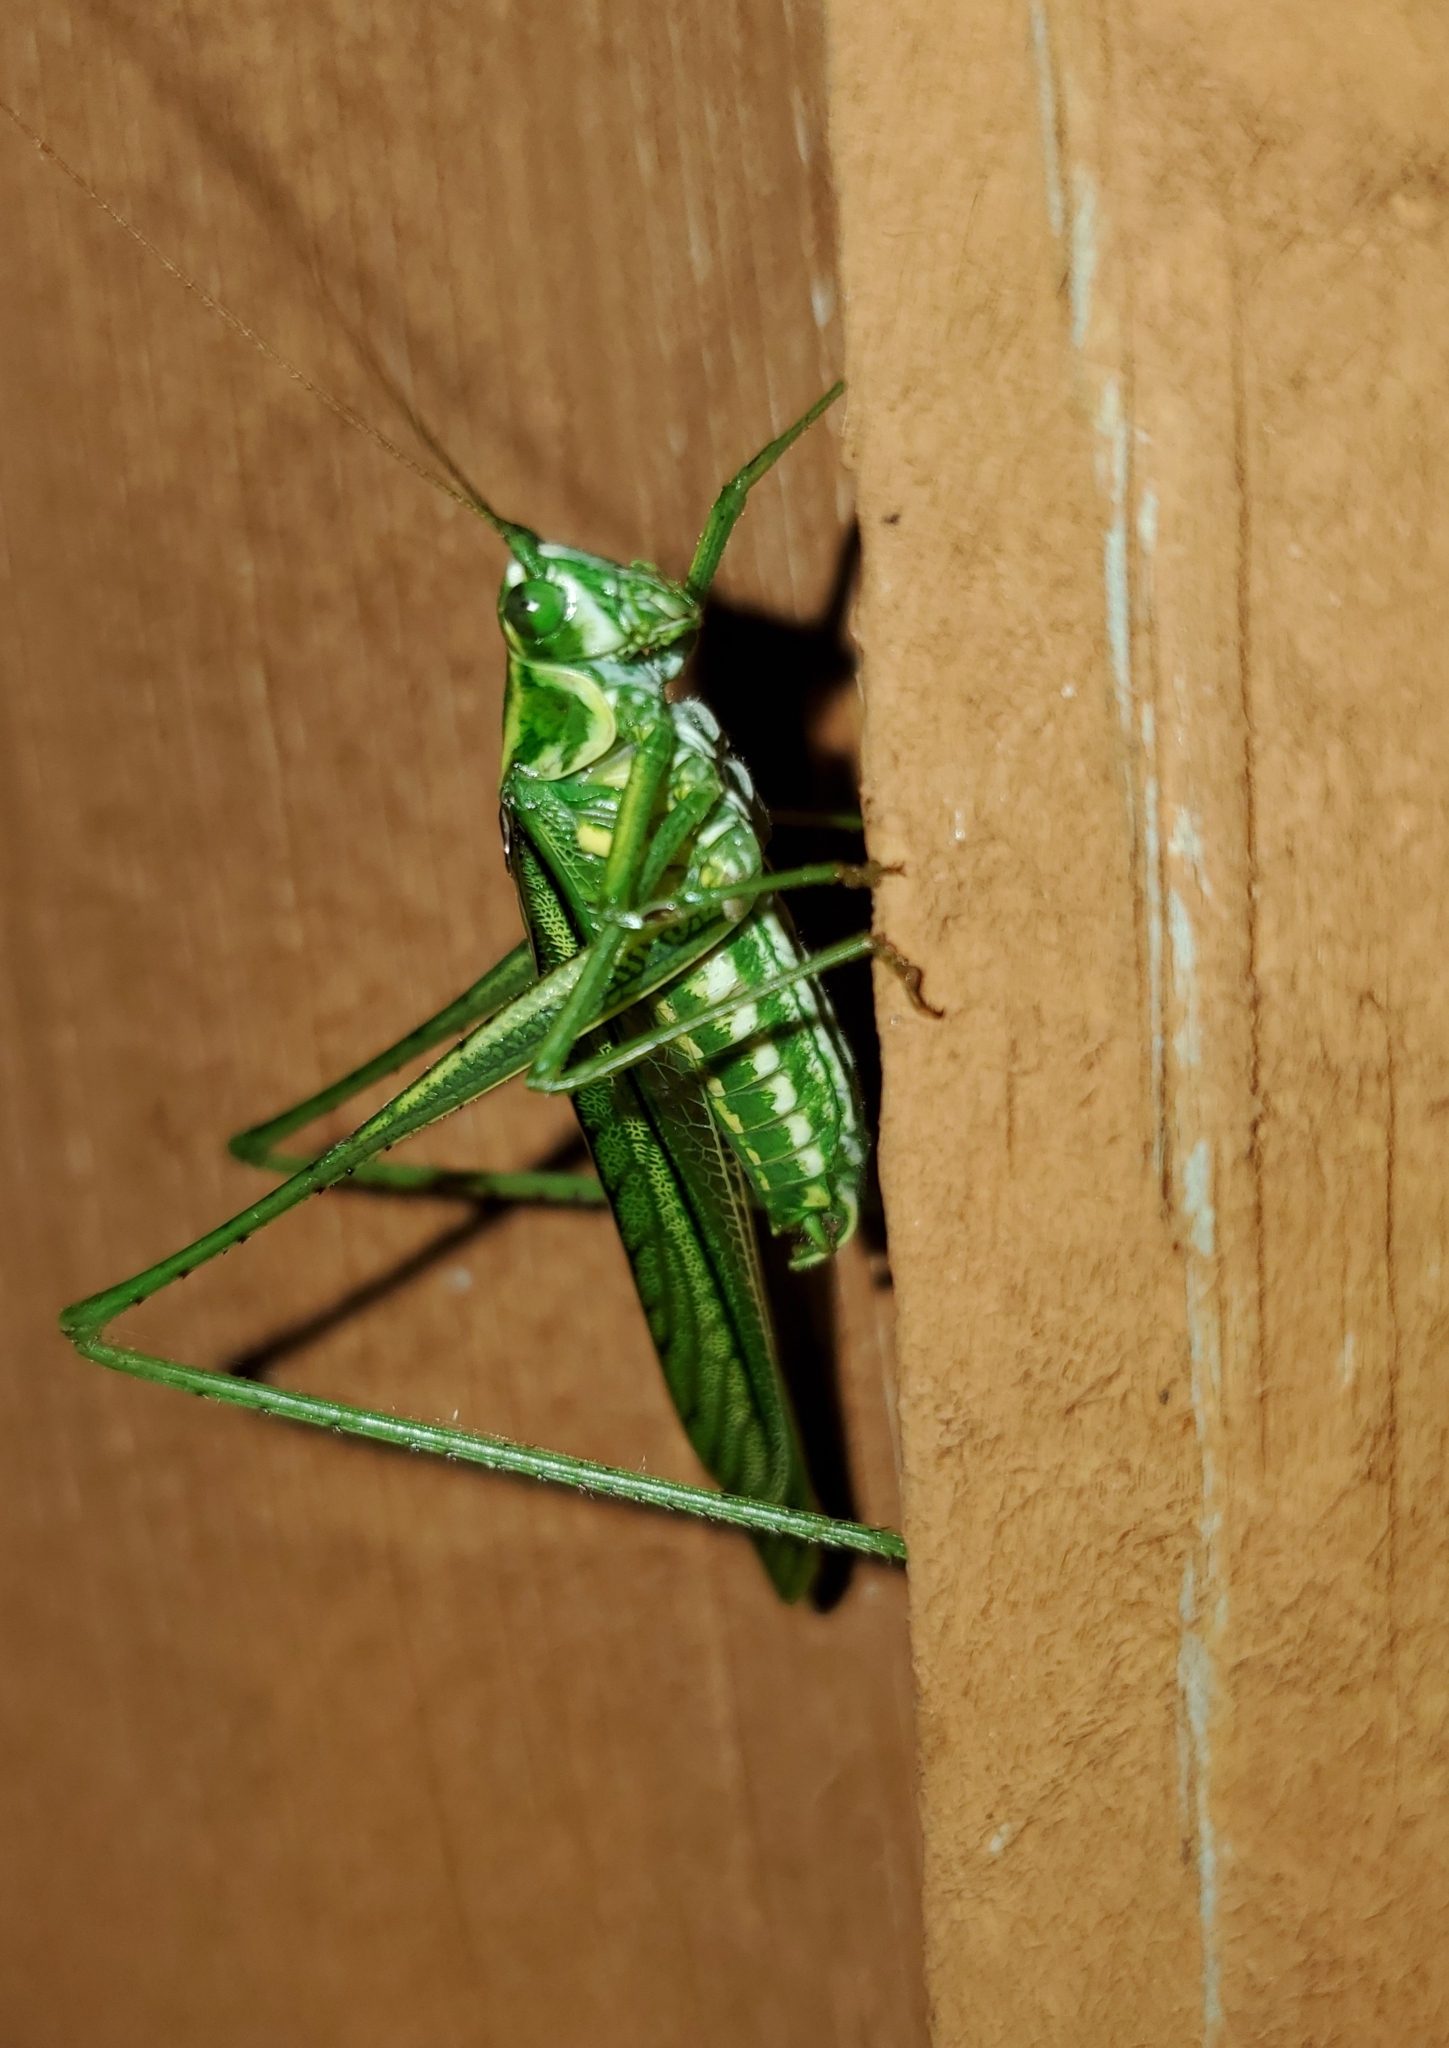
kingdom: Animalia
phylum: Arthropoda
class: Insecta
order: Orthoptera
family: Tettigoniidae
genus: Inscudderia
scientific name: Inscudderia walkeri
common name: Eastern cypress katydid
